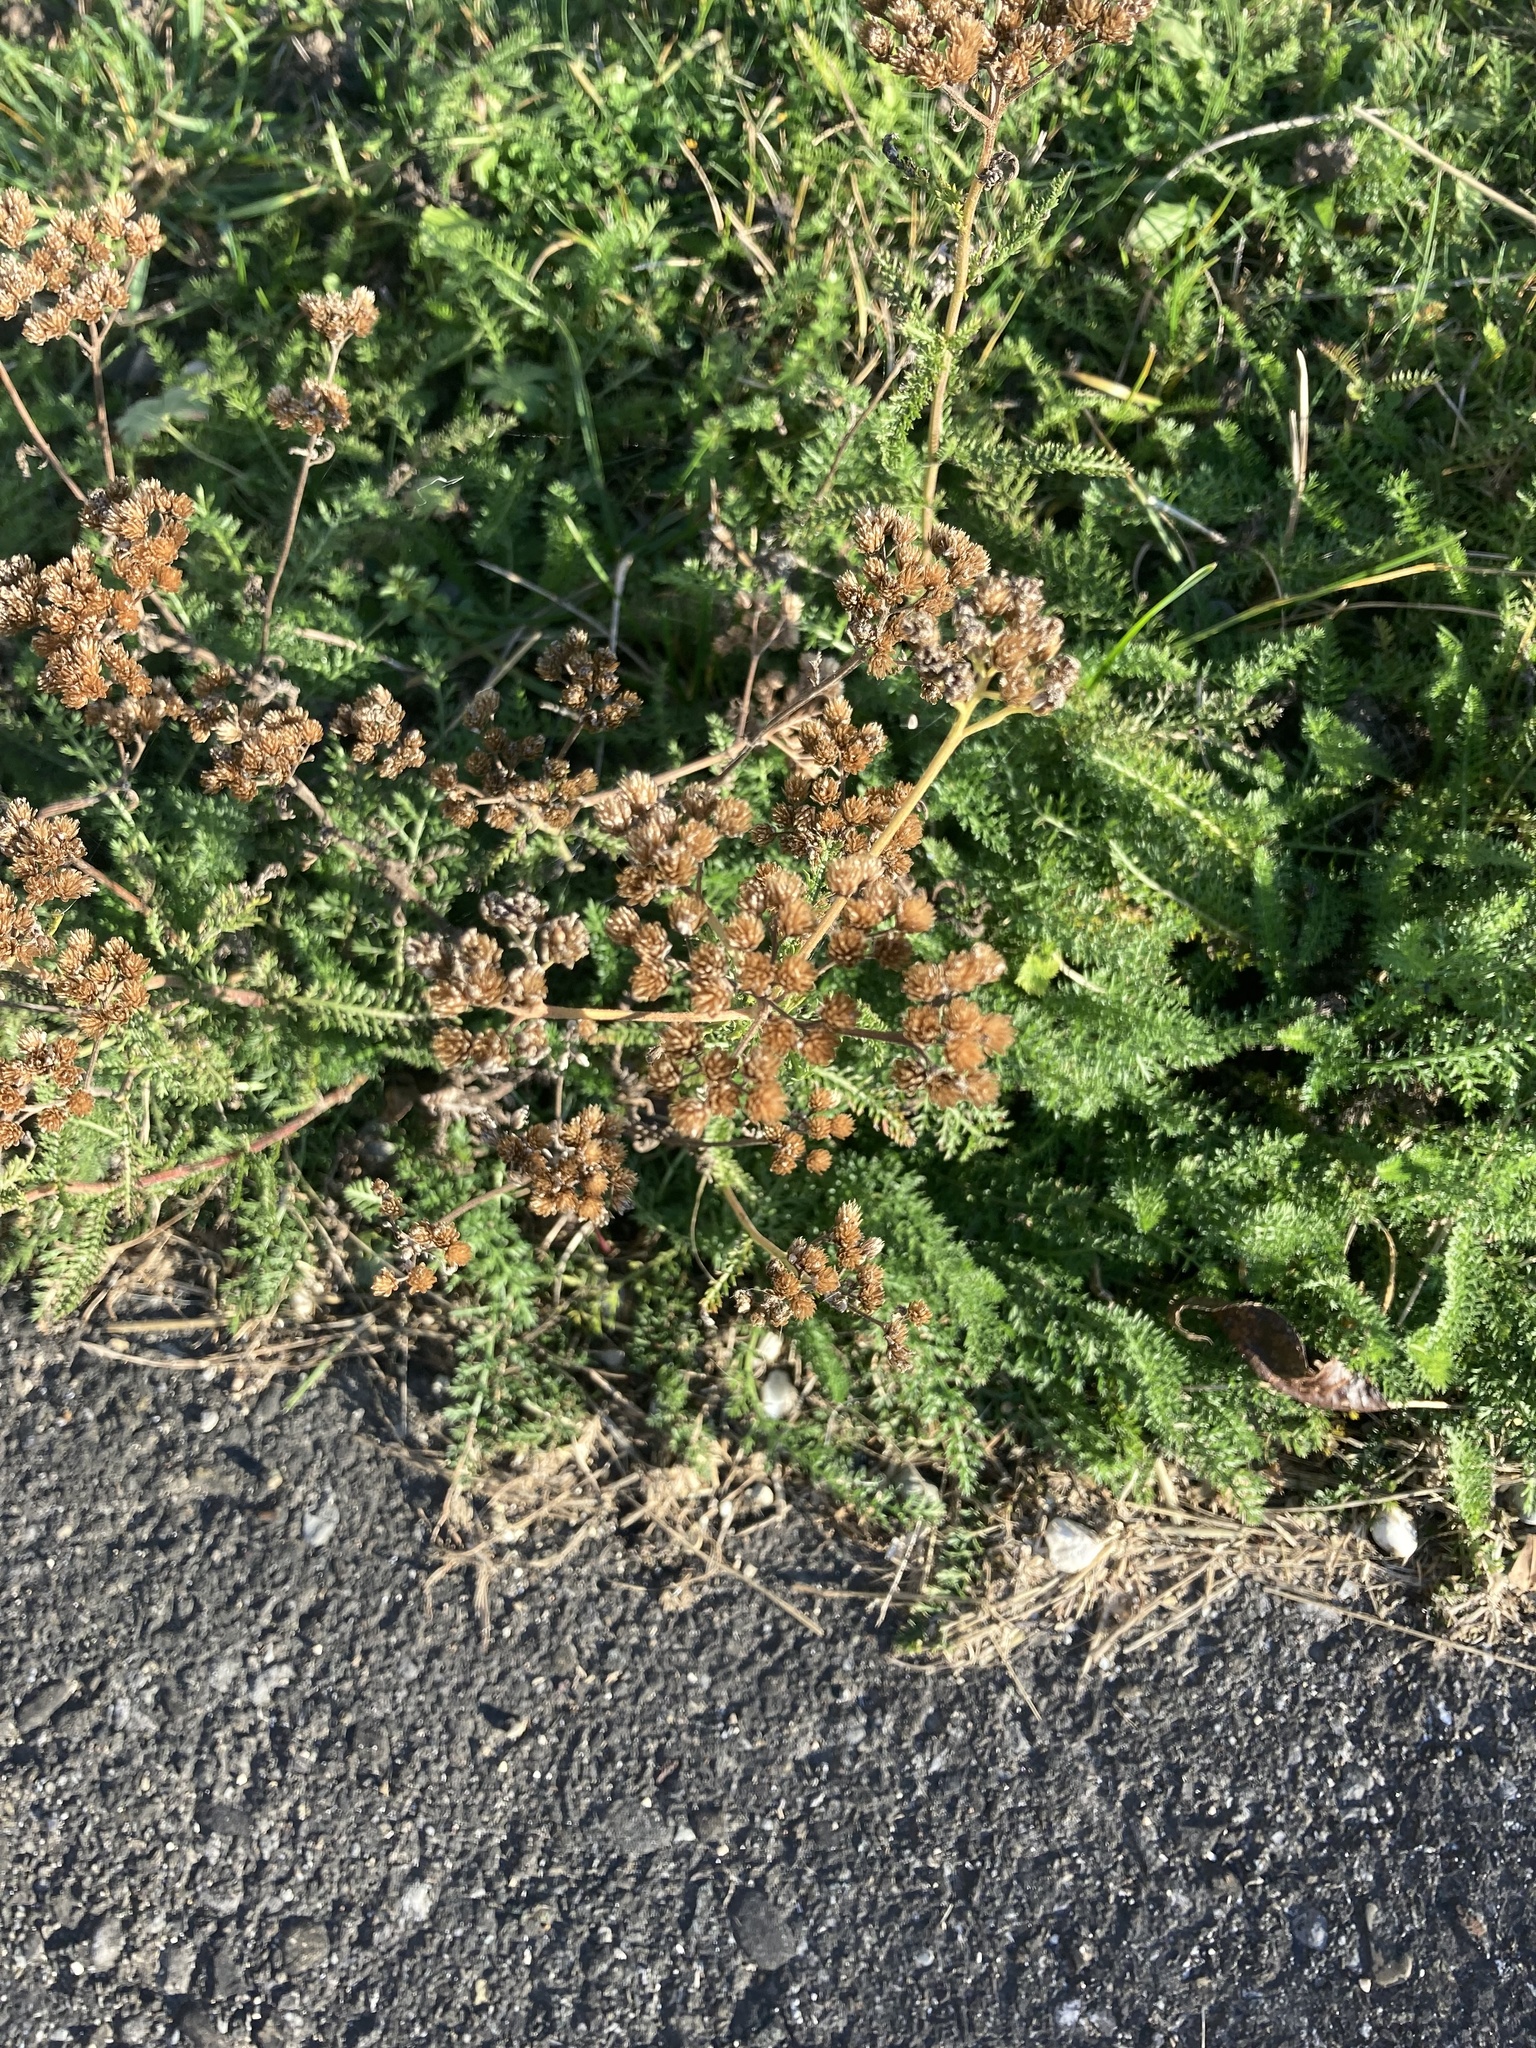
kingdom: Plantae
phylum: Tracheophyta
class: Magnoliopsida
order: Asterales
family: Asteraceae
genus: Achillea
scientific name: Achillea millefolium
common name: Yarrow
